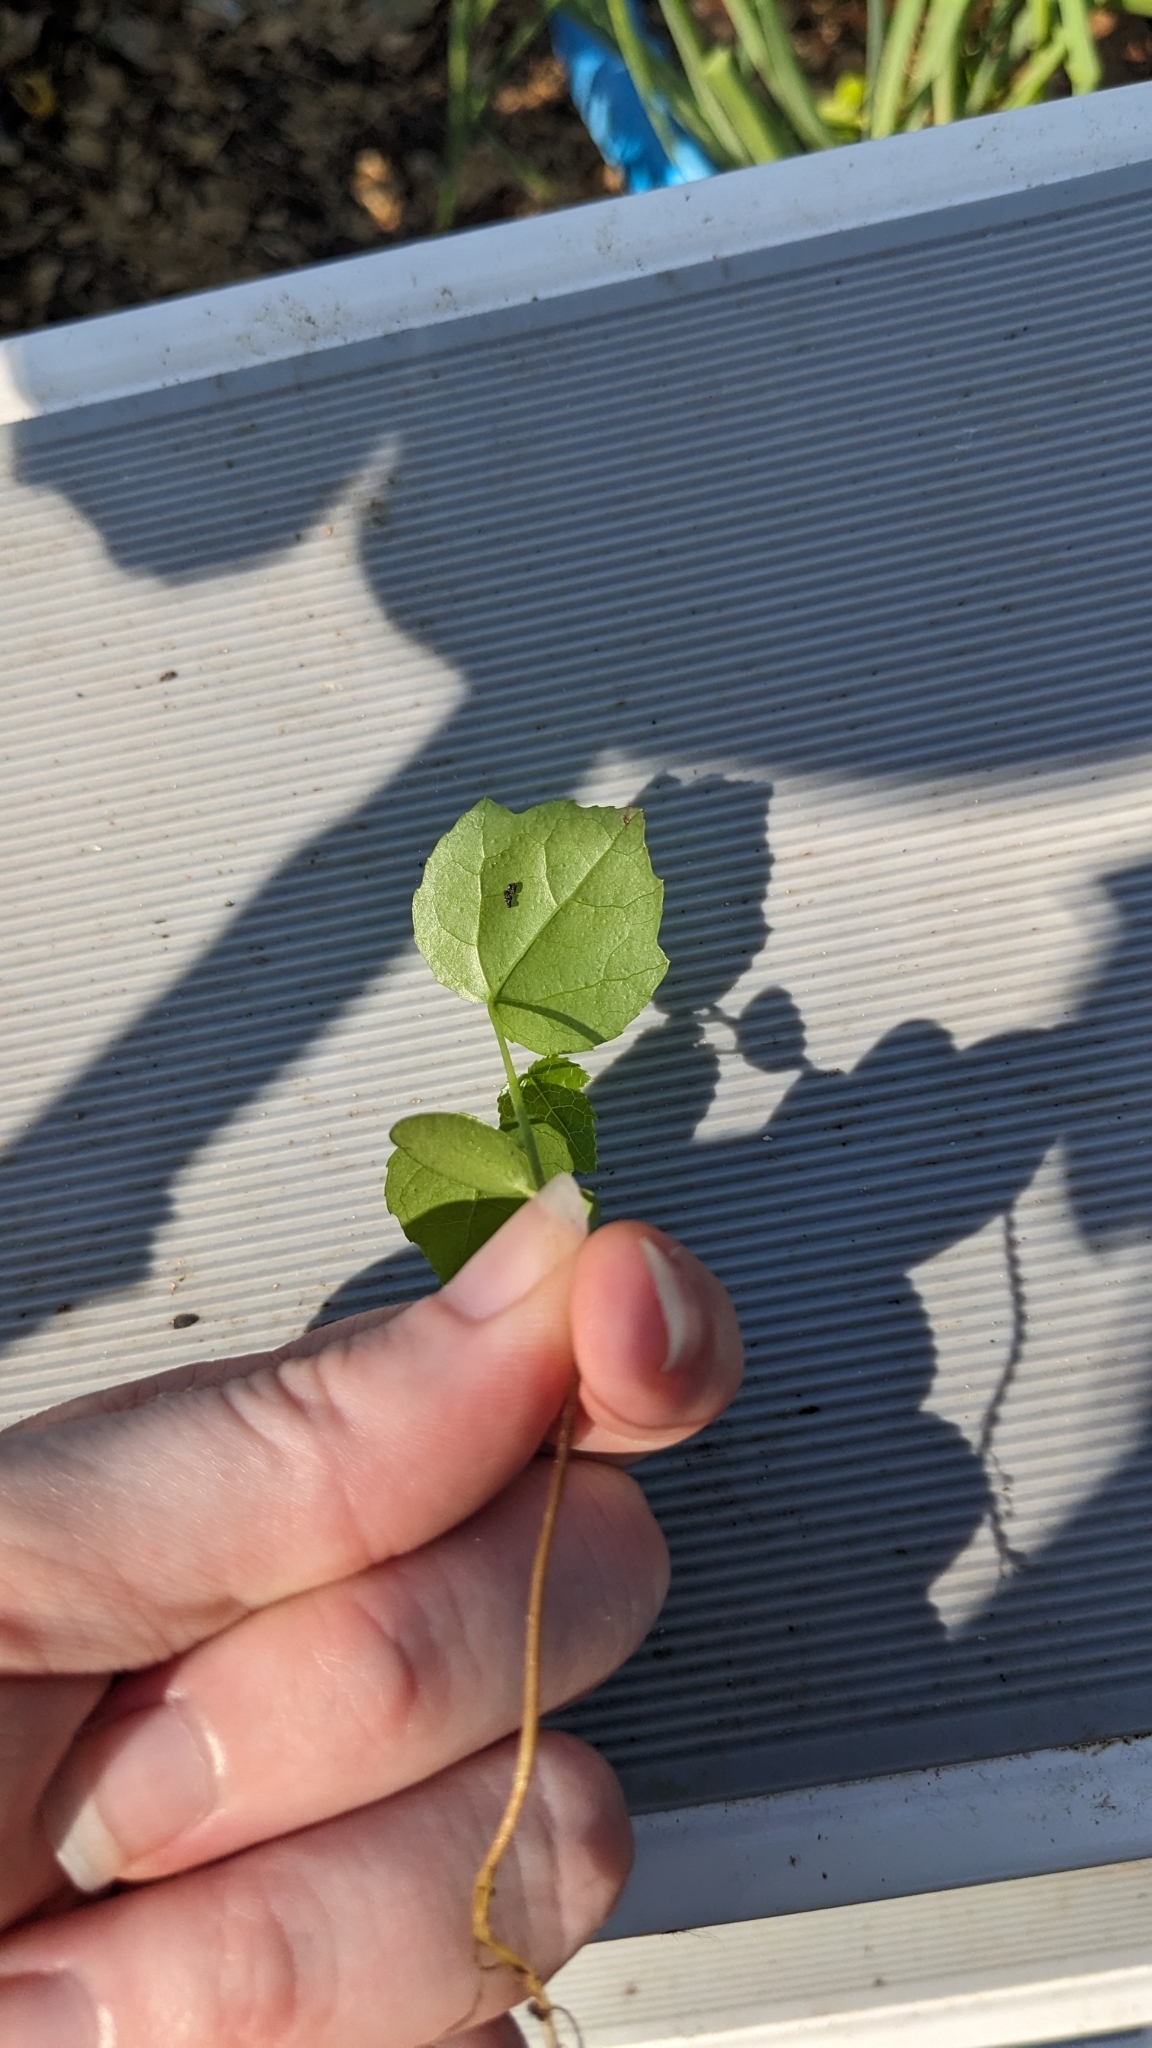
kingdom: Plantae
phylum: Tracheophyta
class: Magnoliopsida
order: Saxifragales
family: Altingiaceae
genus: Liquidambar
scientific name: Liquidambar styraciflua
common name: Sweet gum
